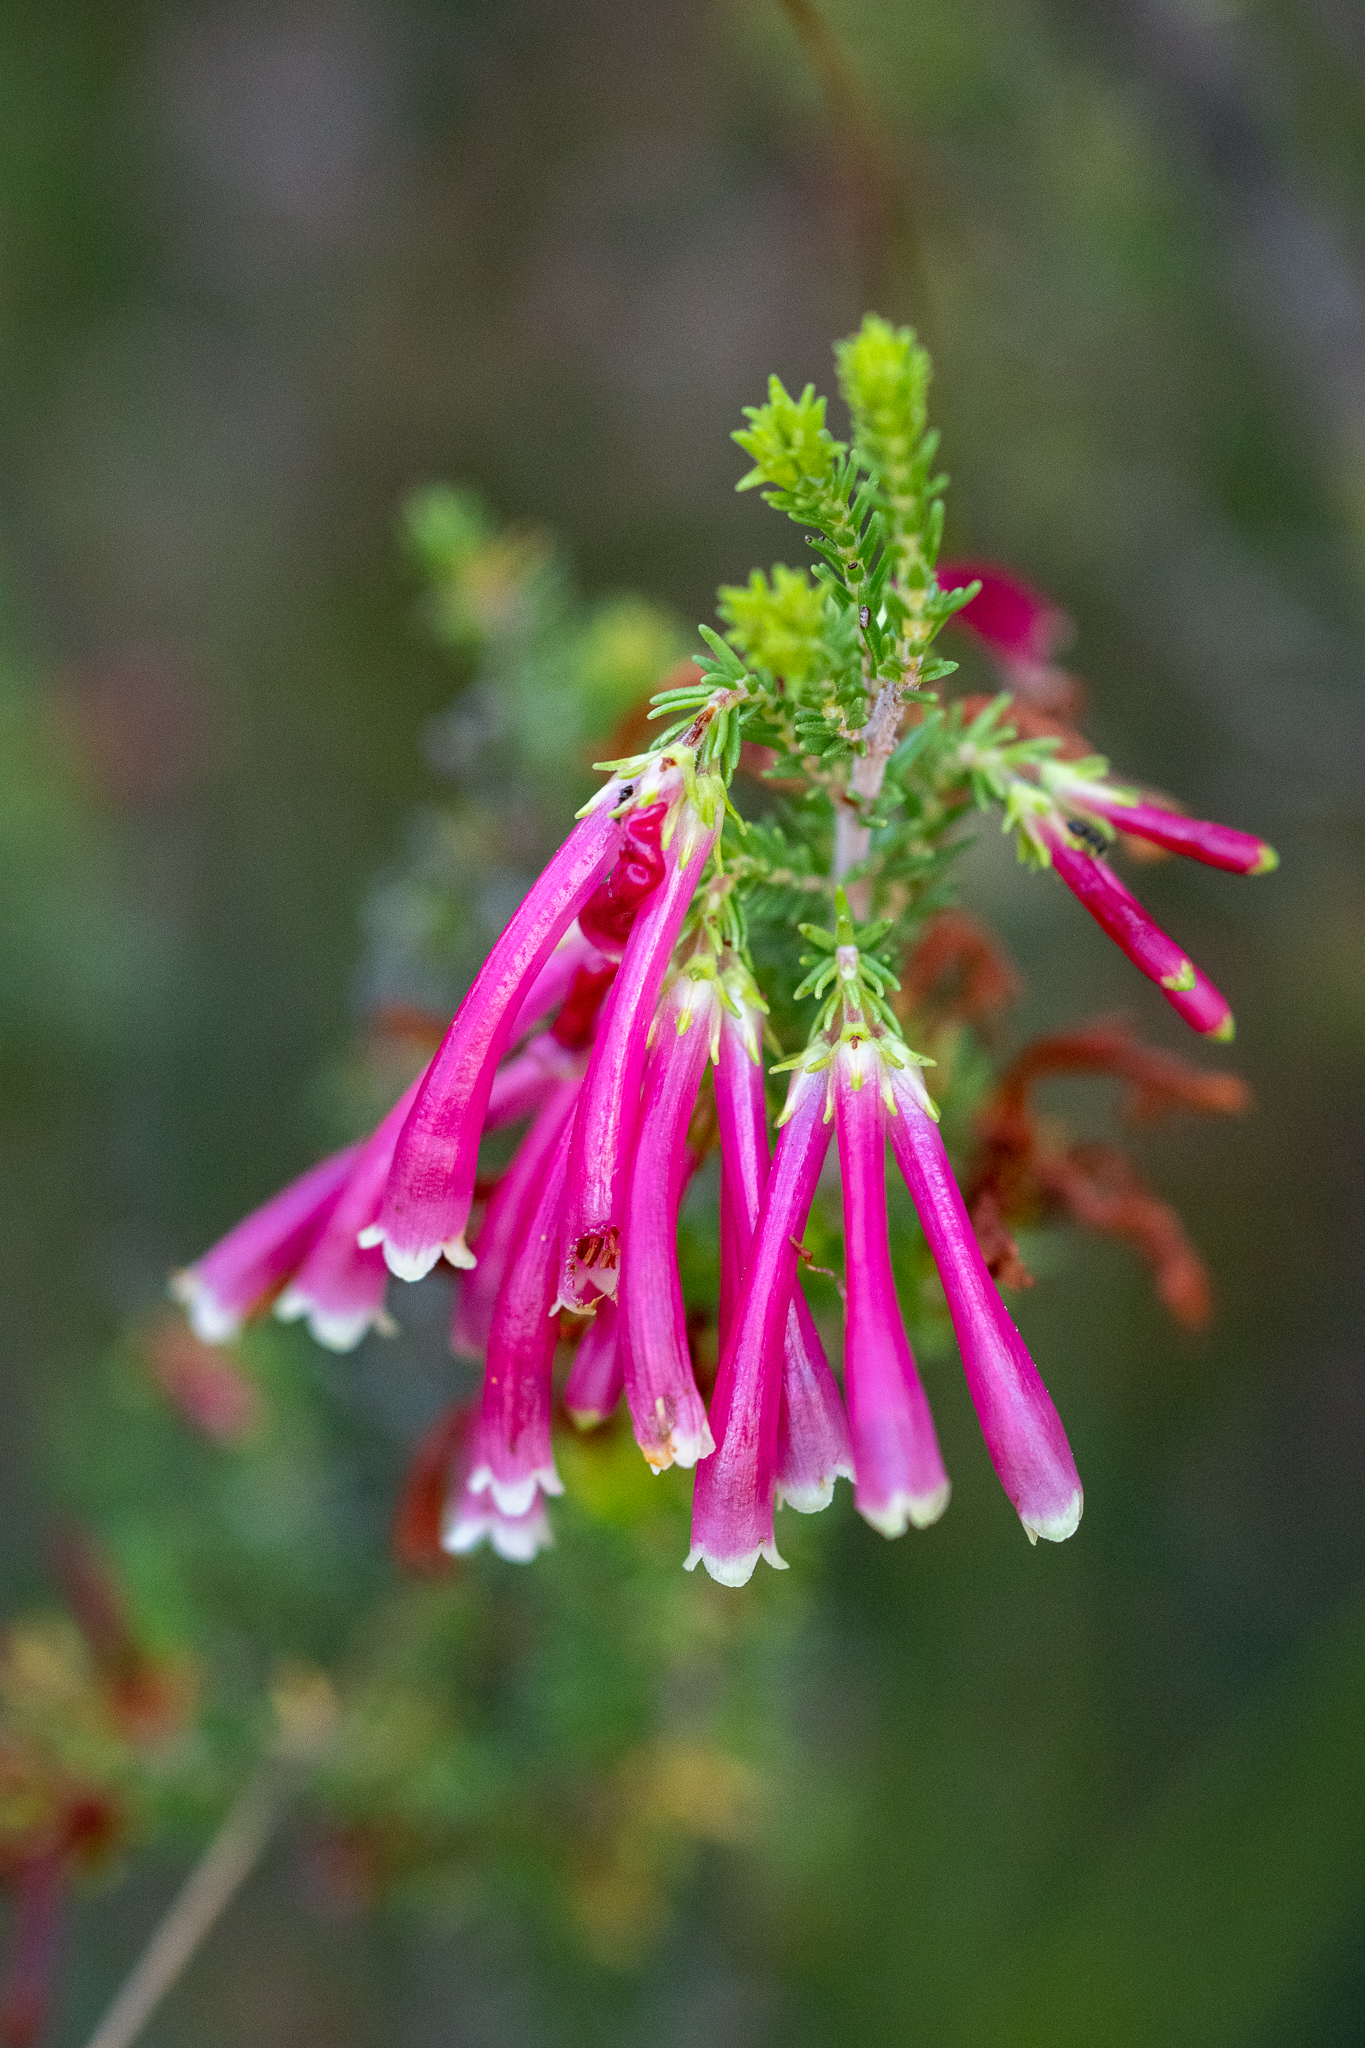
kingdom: Plantae
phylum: Tracheophyta
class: Magnoliopsida
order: Ericales
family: Ericaceae
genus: Erica
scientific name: Erica discolor
